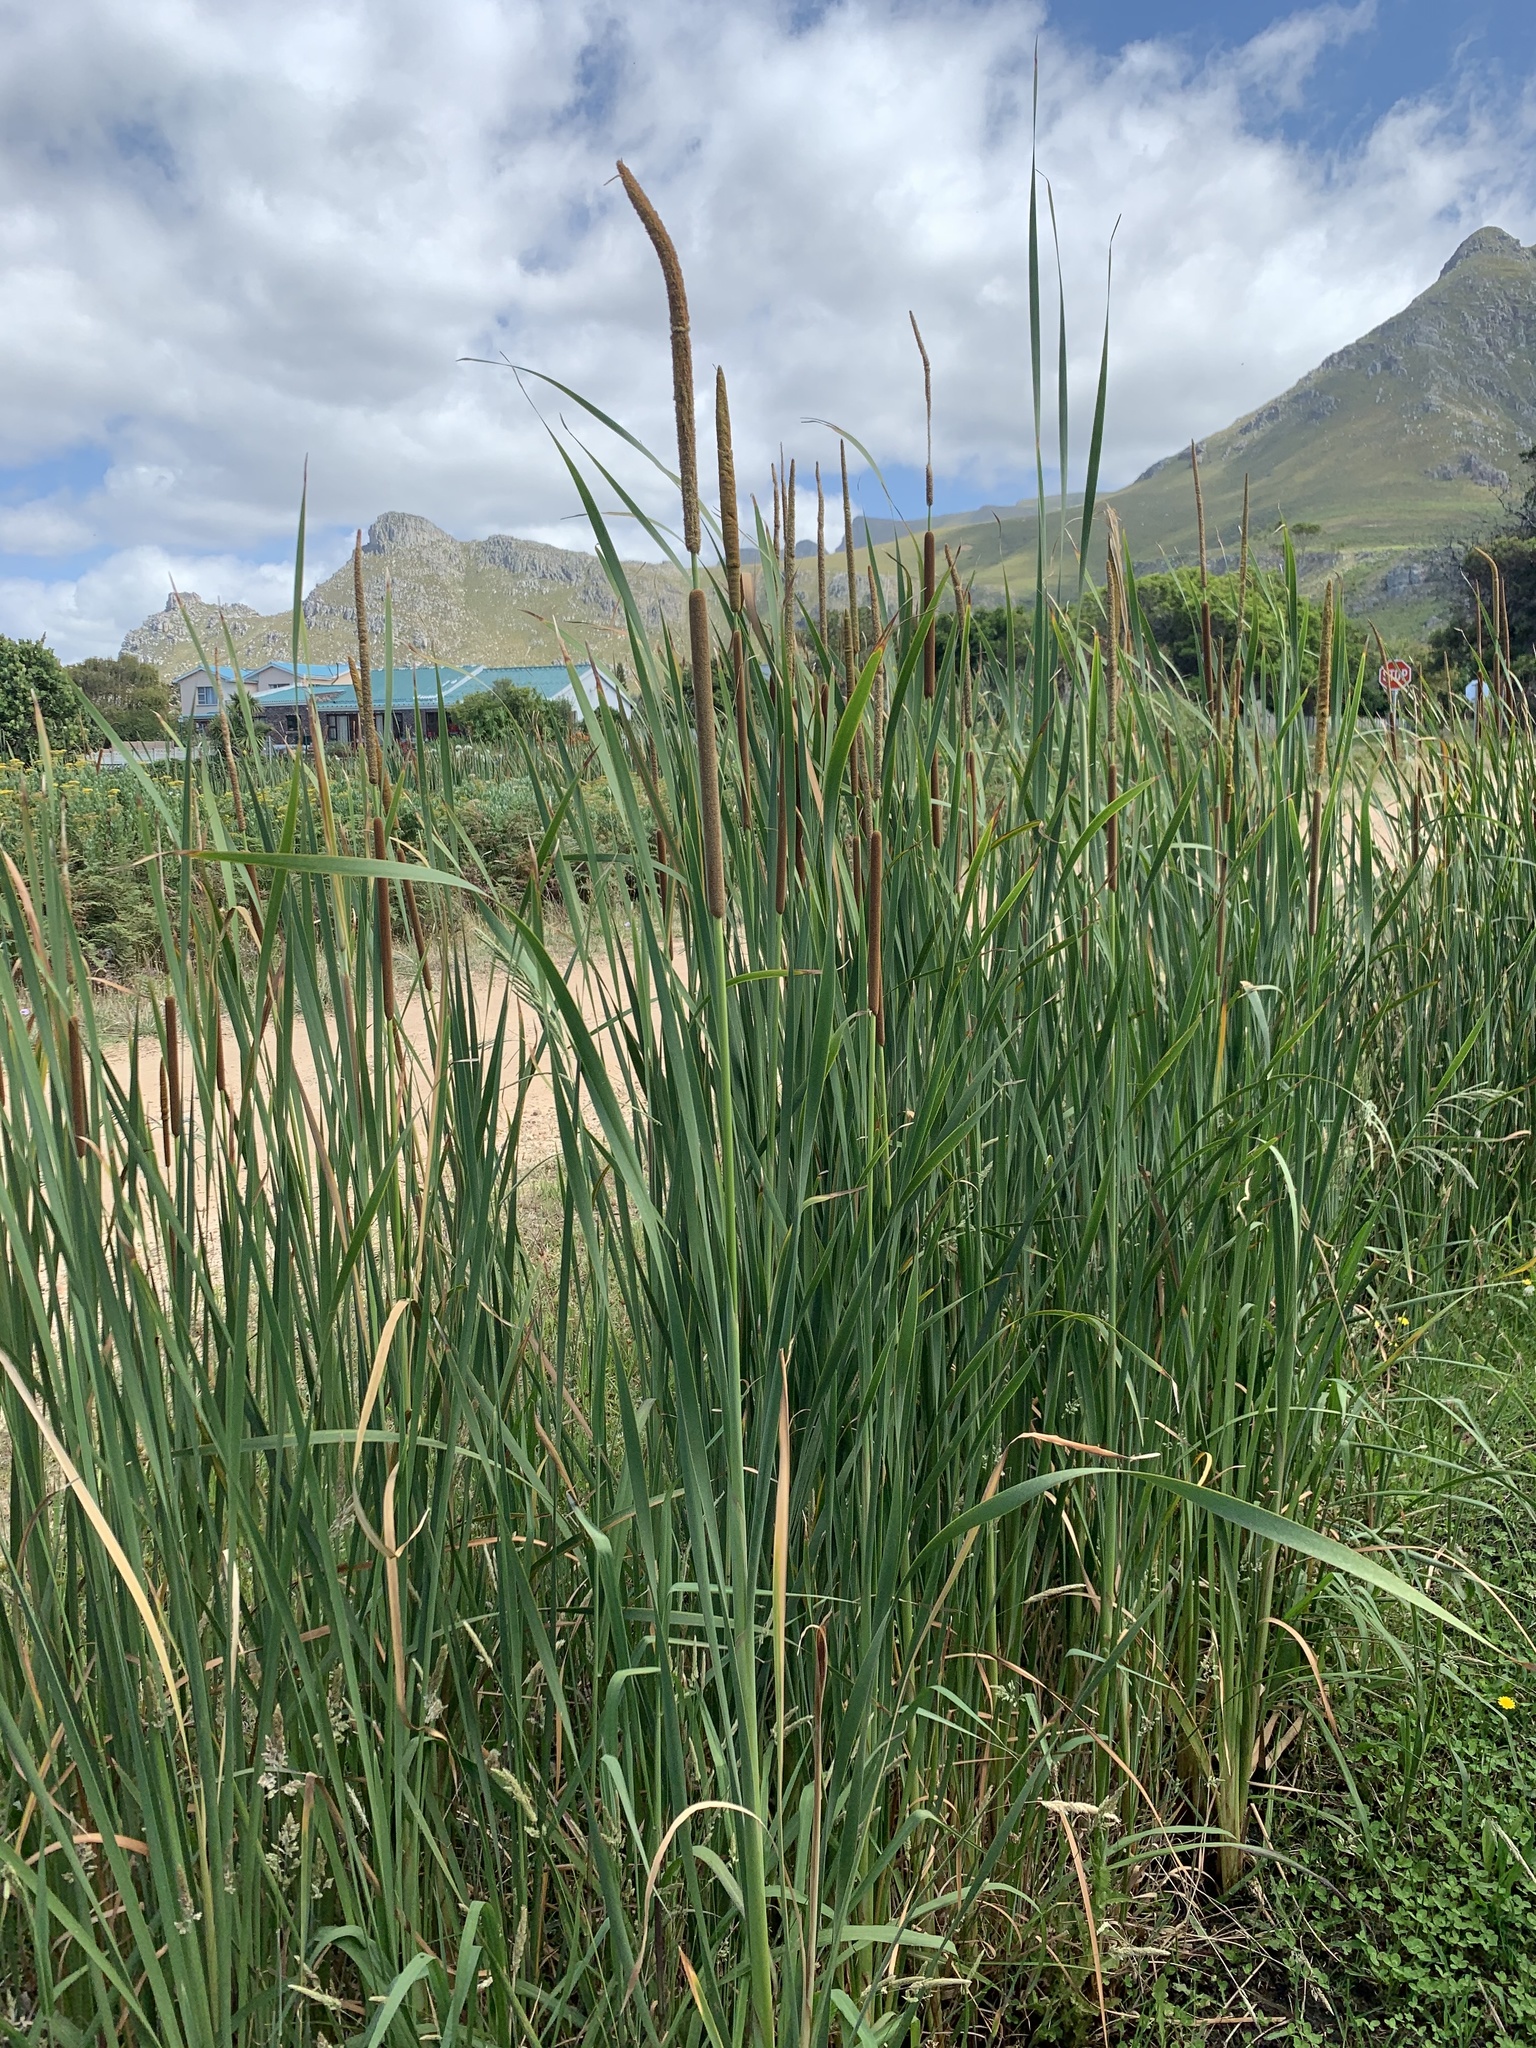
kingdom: Plantae
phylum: Tracheophyta
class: Liliopsida
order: Poales
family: Typhaceae
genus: Typha
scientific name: Typha capensis
